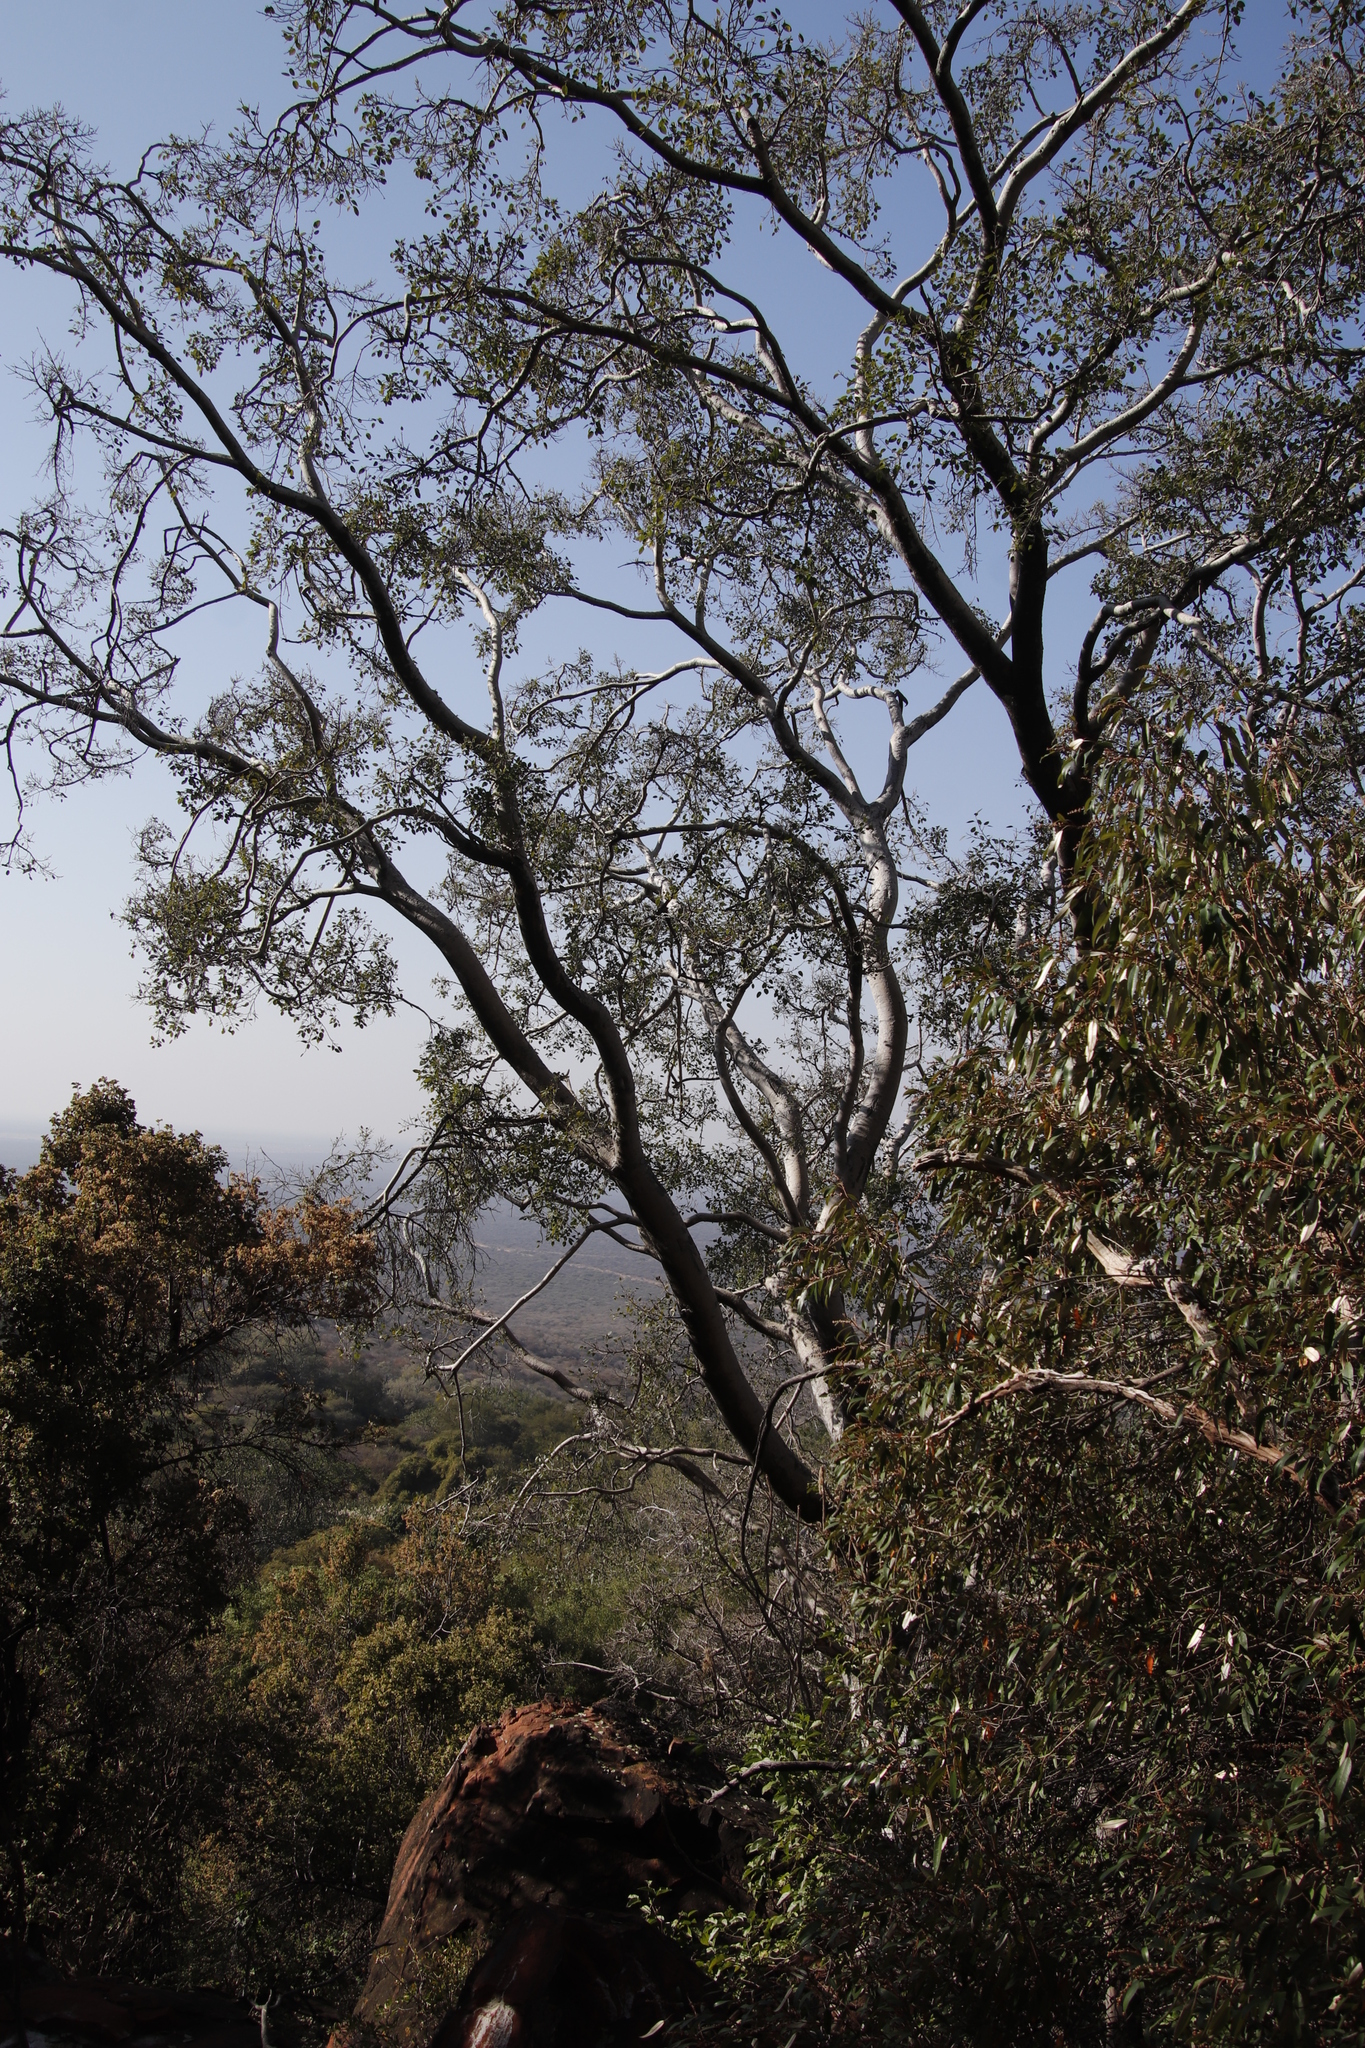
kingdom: Plantae
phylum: Tracheophyta
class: Magnoliopsida
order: Rosales
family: Moraceae
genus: Ficus
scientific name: Ficus cordata
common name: Namaqua rock fig
